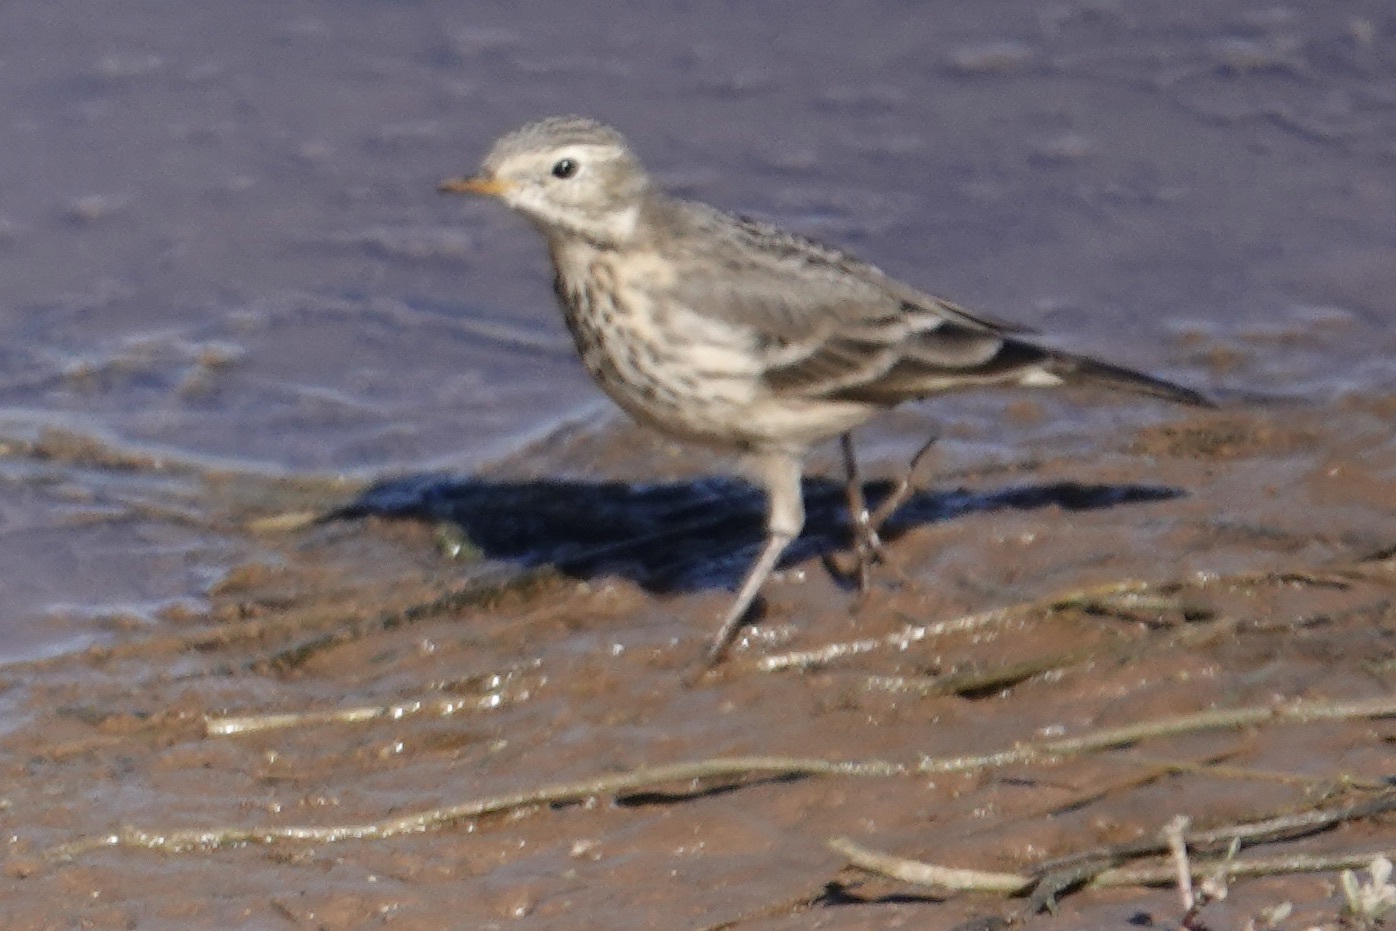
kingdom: Animalia
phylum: Chordata
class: Aves
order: Passeriformes
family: Motacillidae
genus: Anthus
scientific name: Anthus rubescens
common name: Buff-bellied pipit
